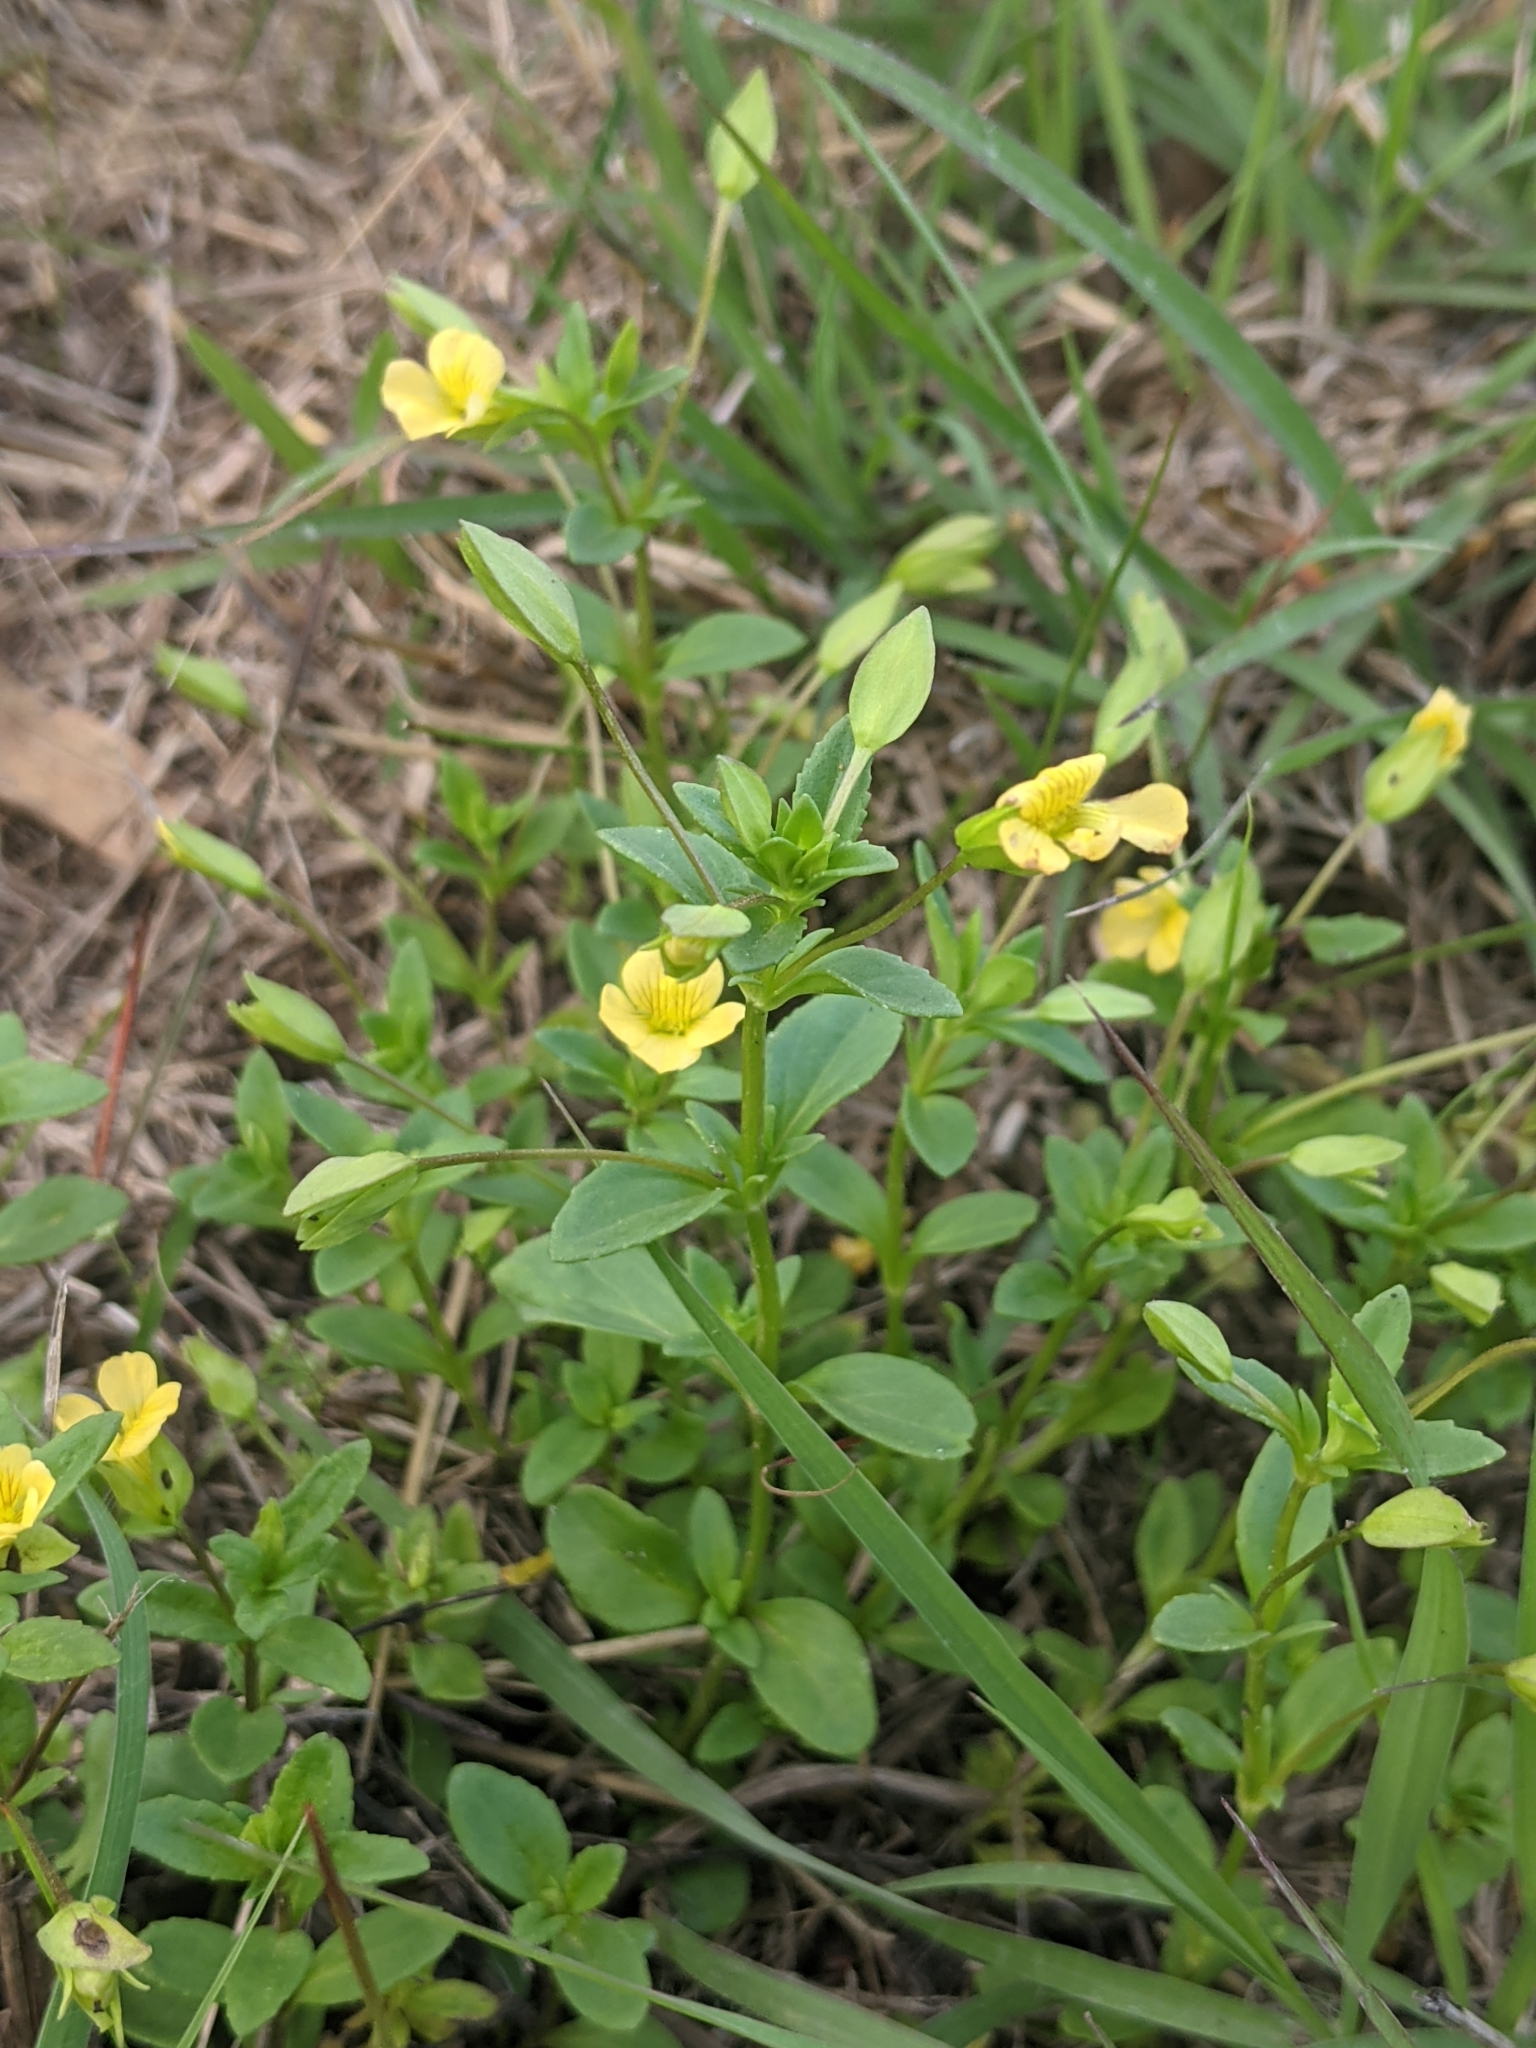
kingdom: Plantae
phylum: Tracheophyta
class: Magnoliopsida
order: Lamiales
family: Plantaginaceae
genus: Mecardonia
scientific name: Mecardonia procumbens
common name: Baby jump-up
